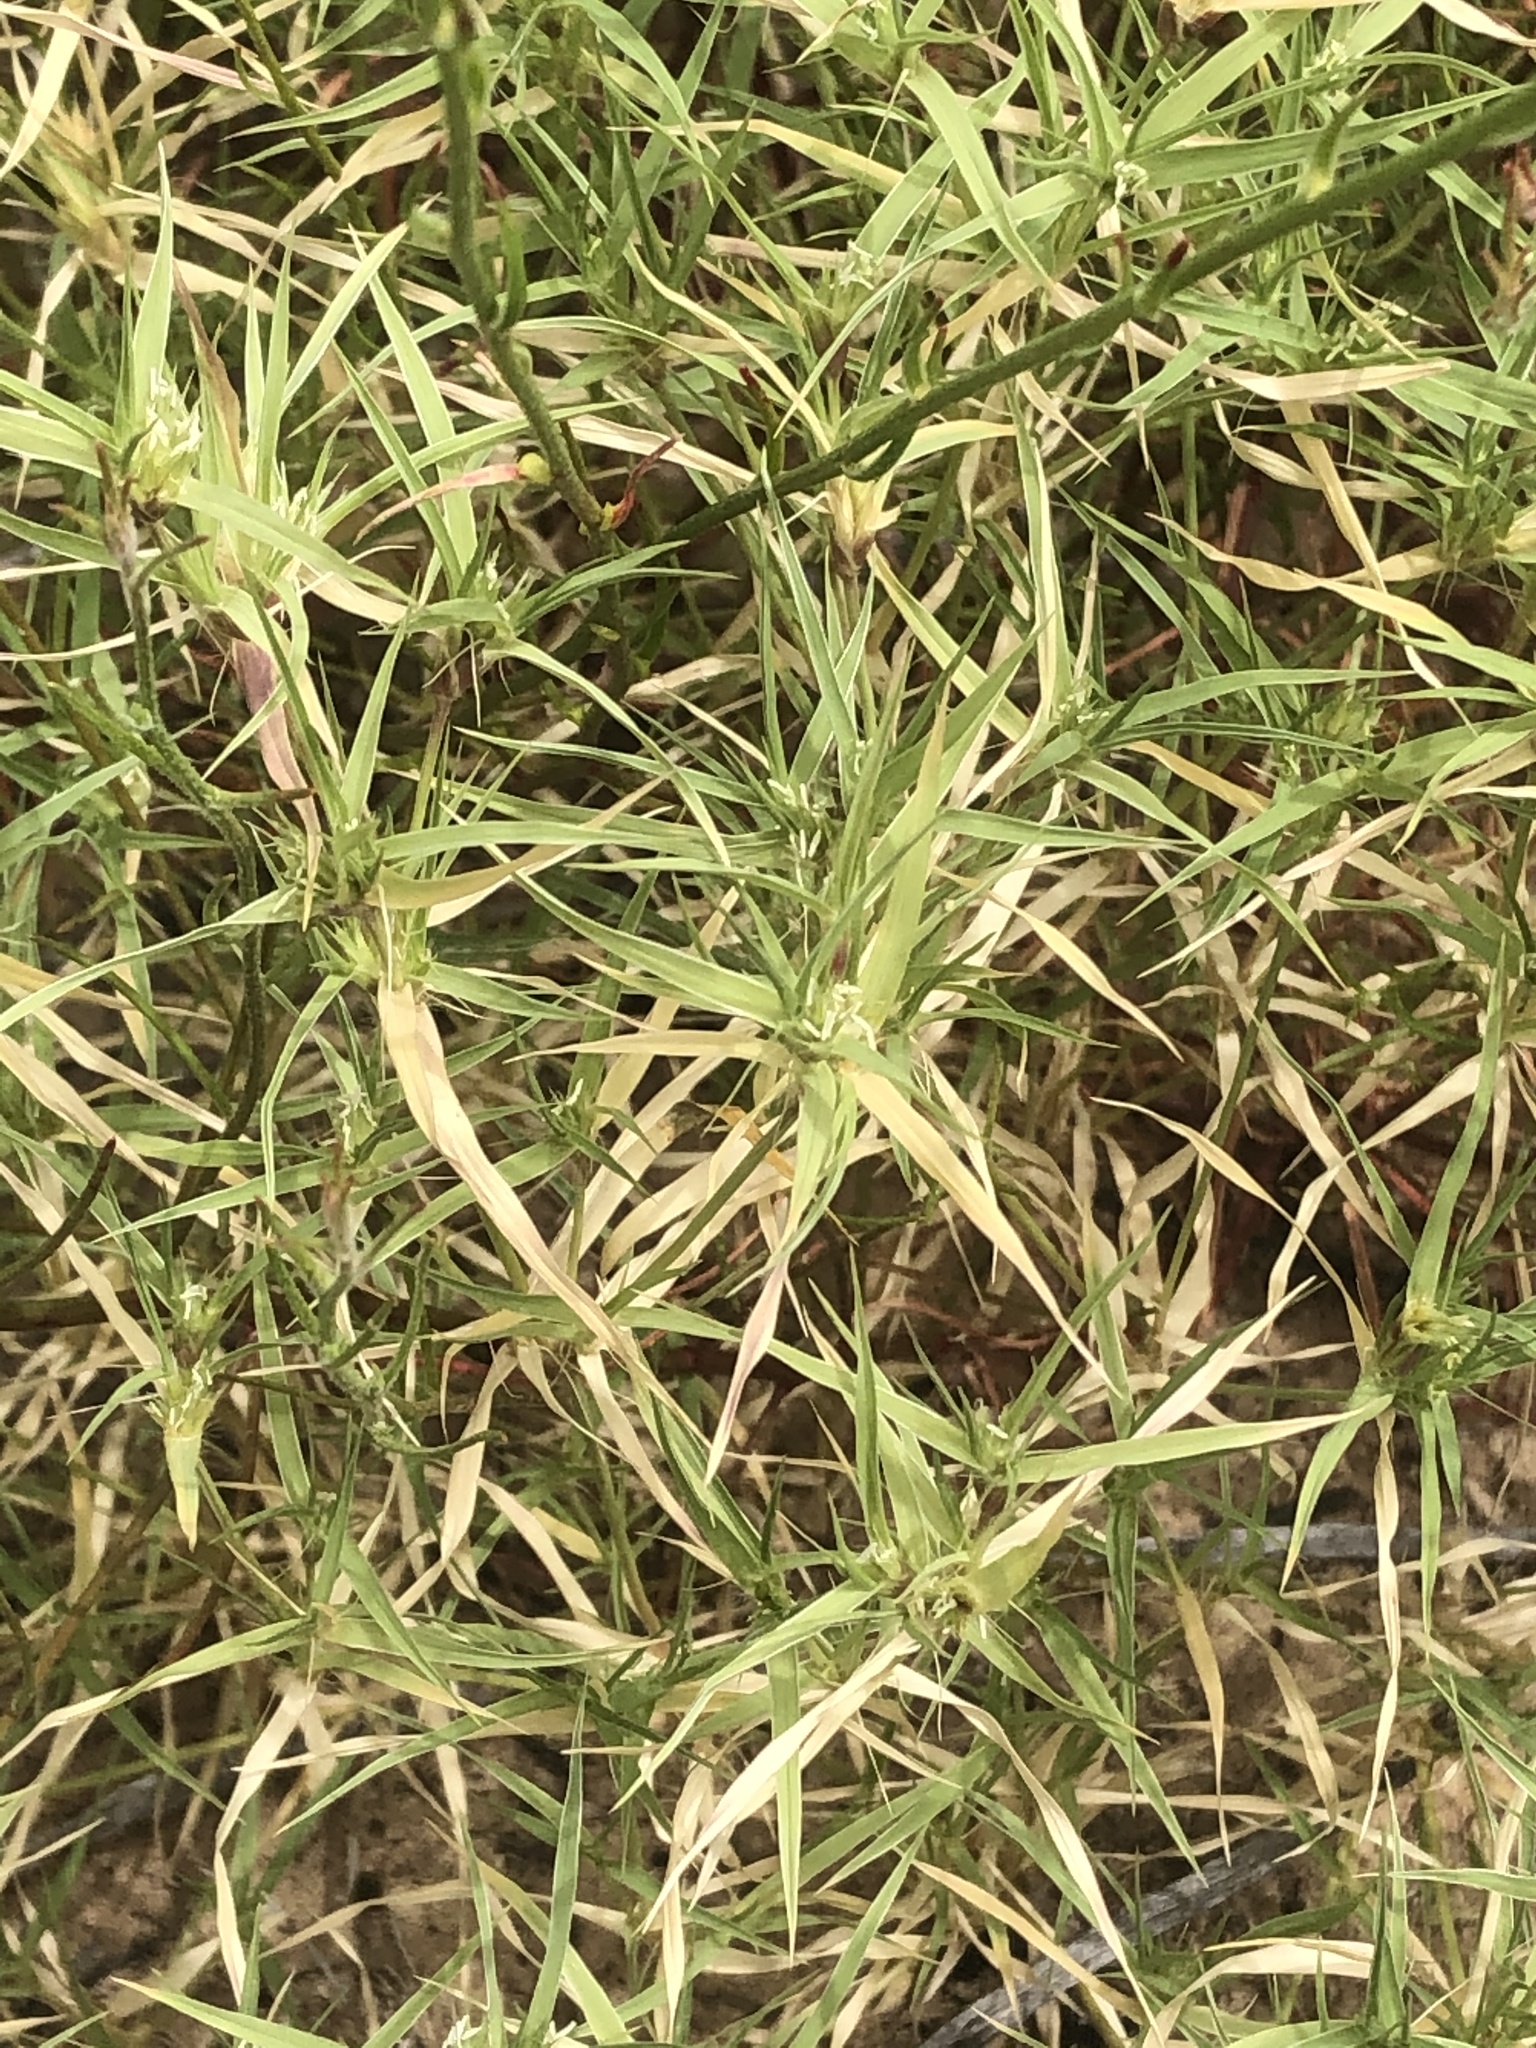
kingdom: Plantae
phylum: Tracheophyta
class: Liliopsida
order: Poales
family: Poaceae
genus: Munroa
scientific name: Munroa squarrosa
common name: False buffalo grass
